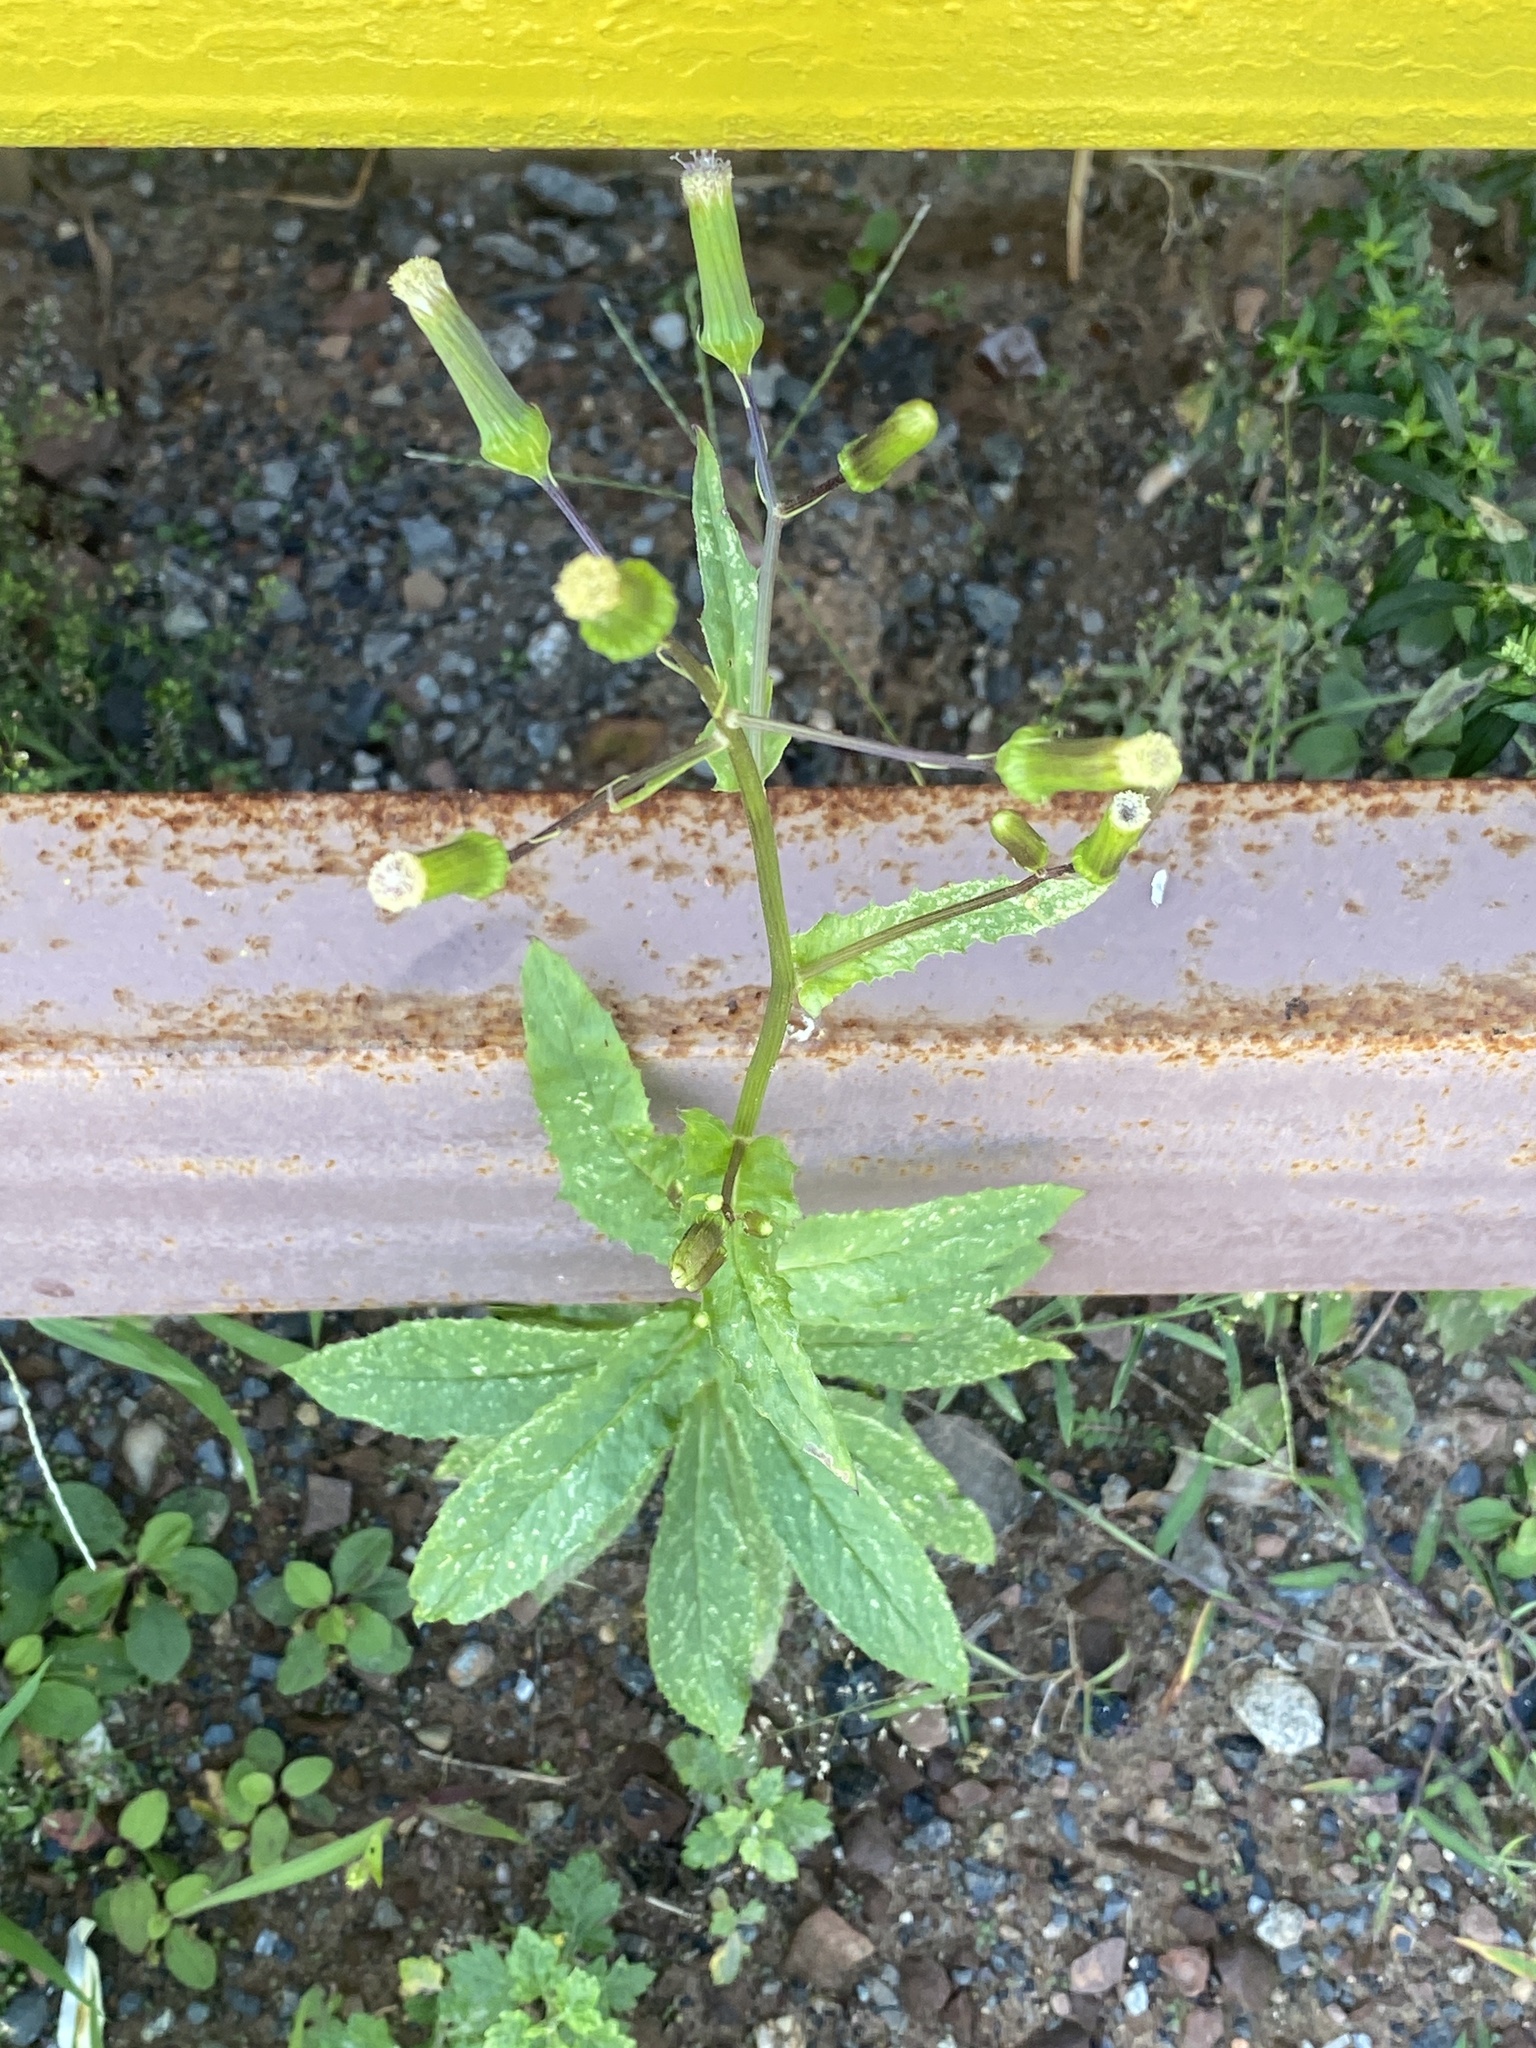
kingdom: Plantae
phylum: Tracheophyta
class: Magnoliopsida
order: Asterales
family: Asteraceae
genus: Erechtites
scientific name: Erechtites hieraciifolius
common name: American burnweed
